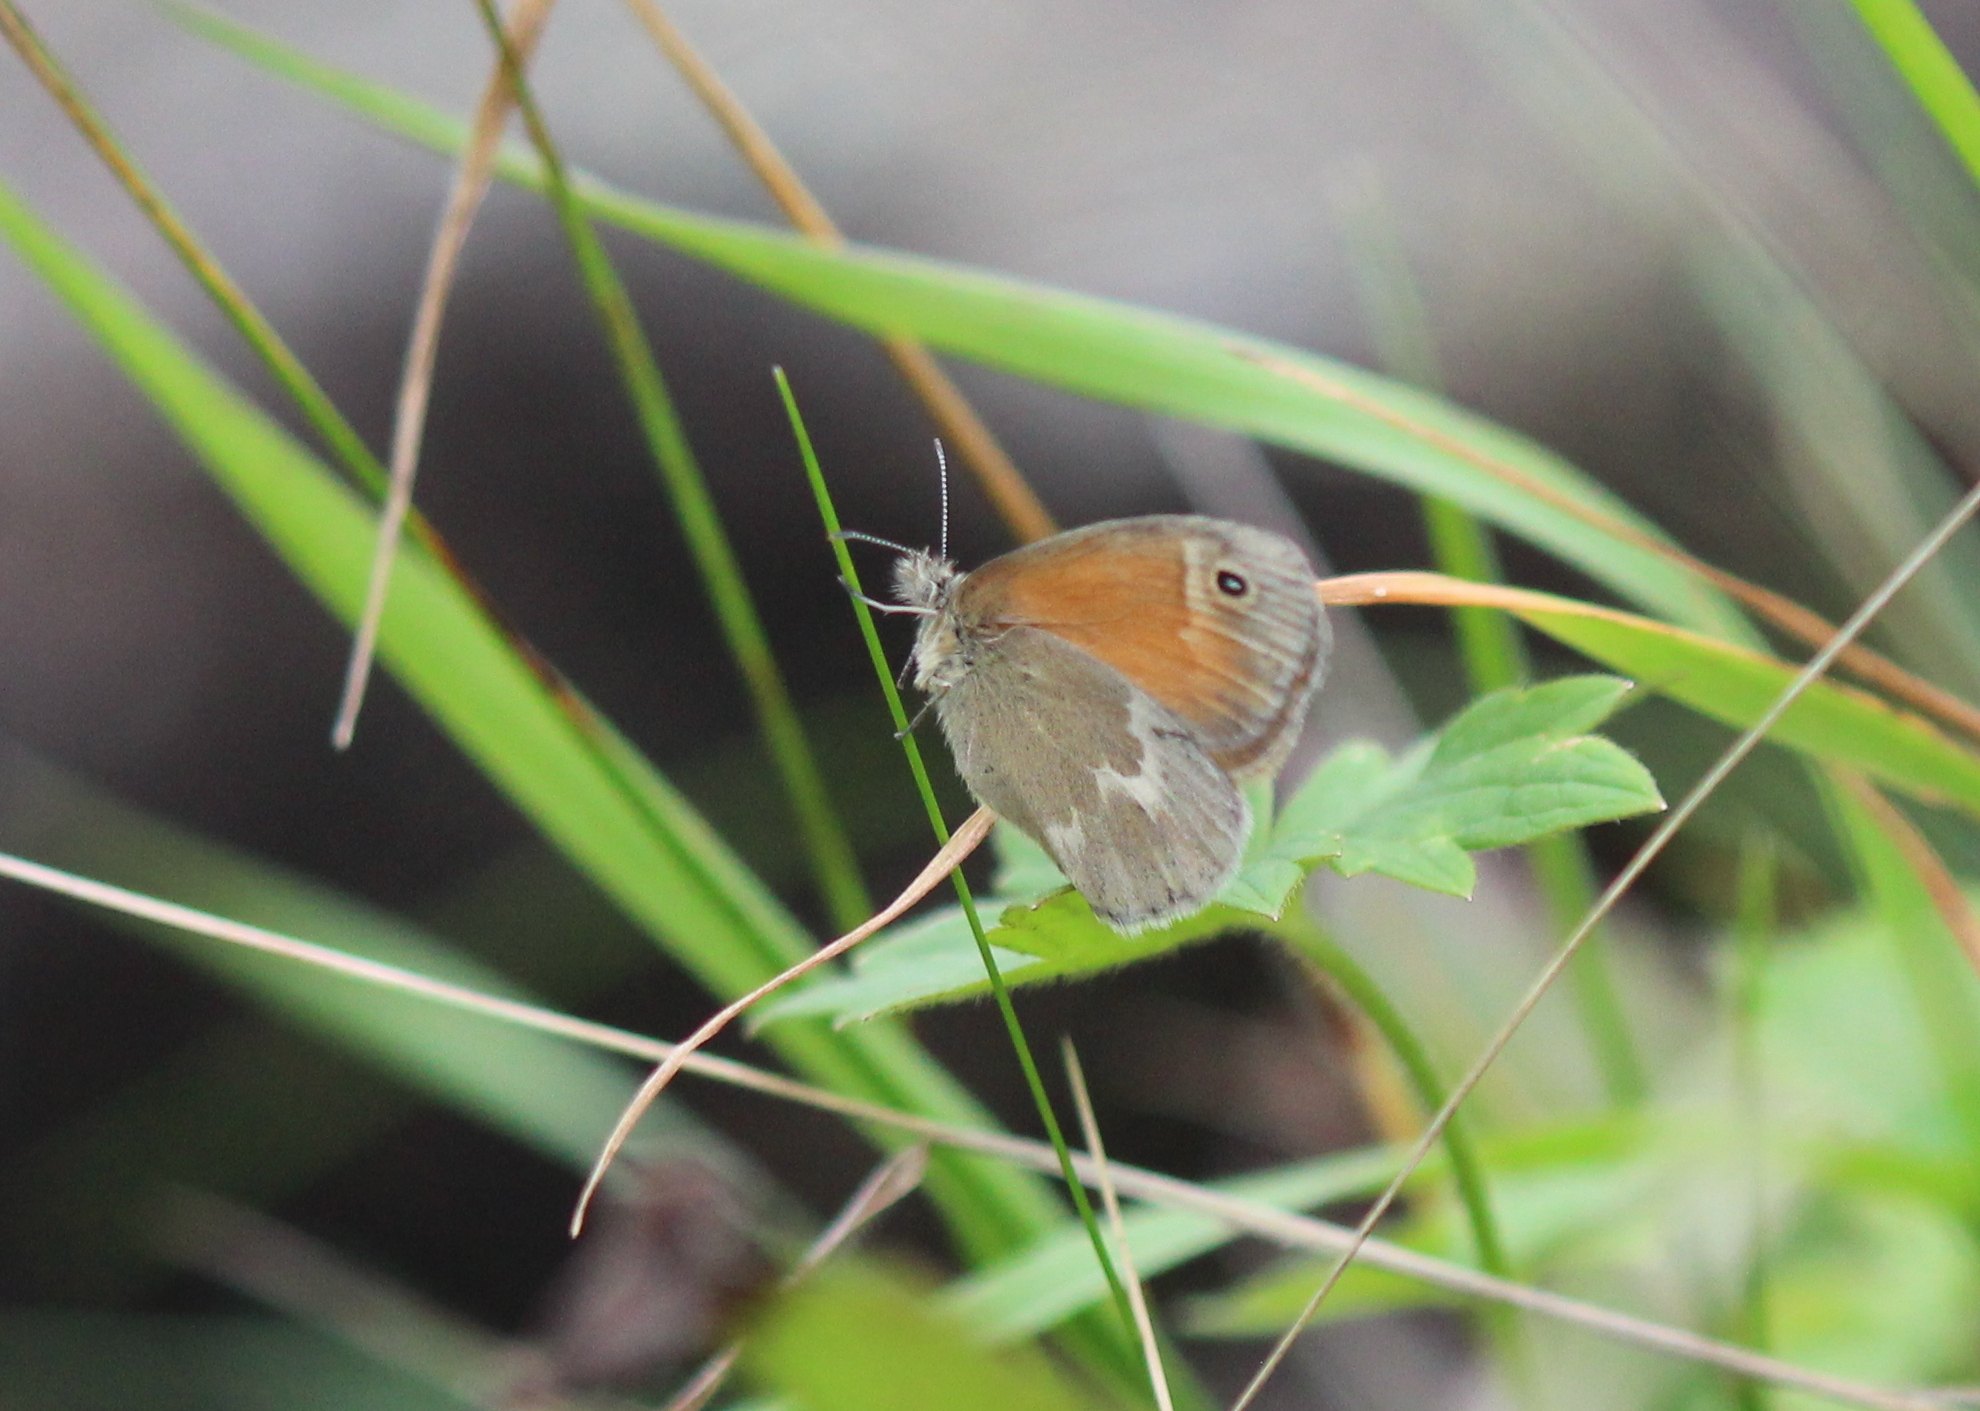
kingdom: Animalia
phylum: Arthropoda
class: Insecta
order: Lepidoptera
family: Nymphalidae
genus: Coenonympha
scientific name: Coenonympha california
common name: Common ringlet
